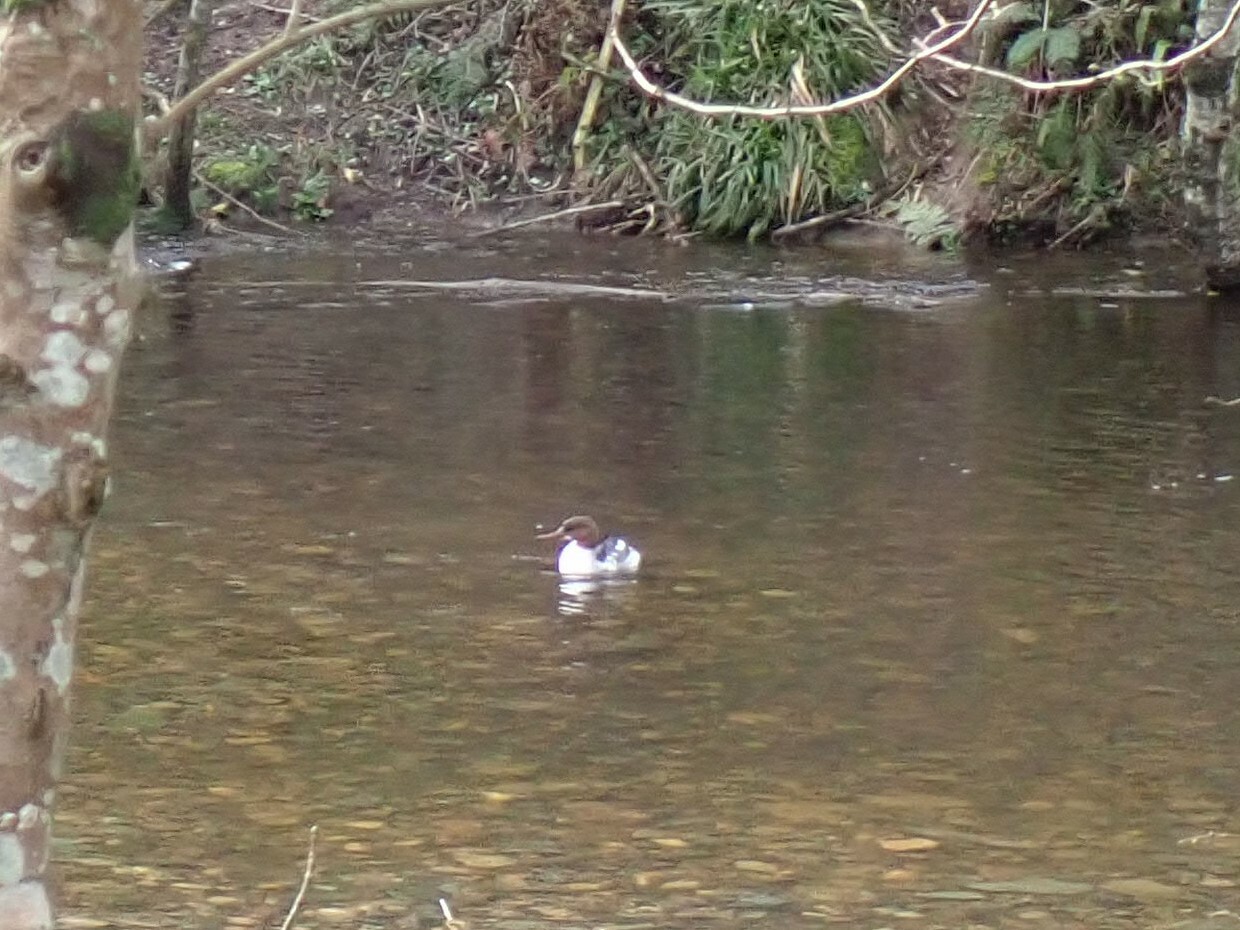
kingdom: Animalia
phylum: Chordata
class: Aves
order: Anseriformes
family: Anatidae
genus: Mergus
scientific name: Mergus merganser
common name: Common merganser
